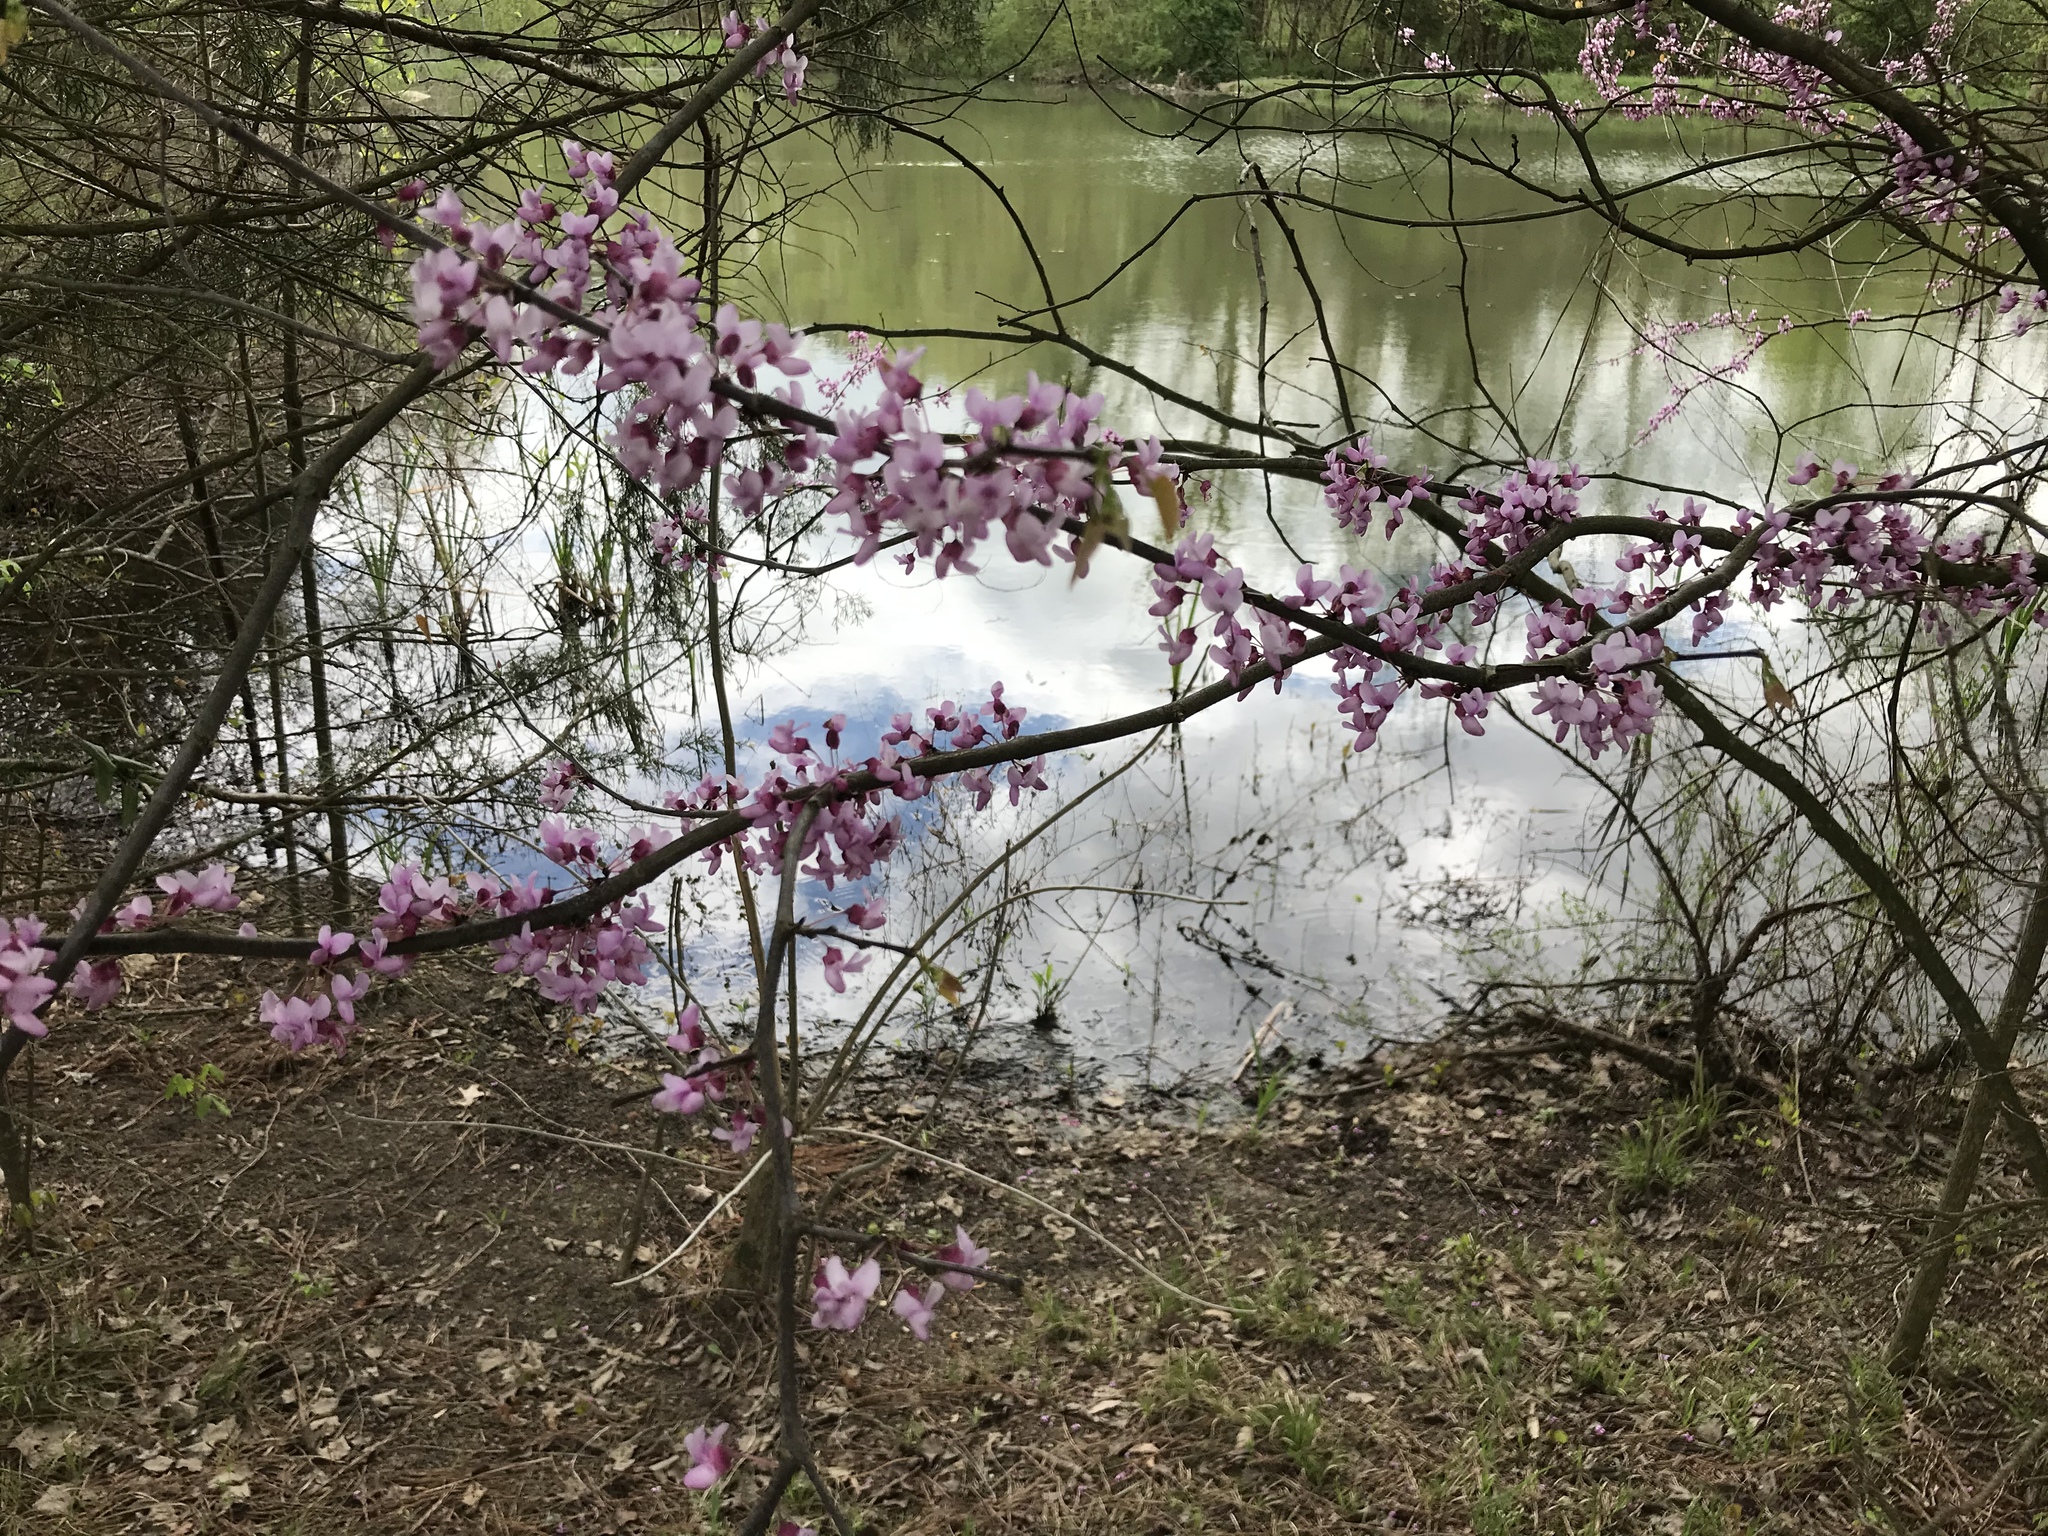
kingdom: Plantae
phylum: Tracheophyta
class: Magnoliopsida
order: Fabales
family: Fabaceae
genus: Cercis
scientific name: Cercis canadensis
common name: Eastern redbud
